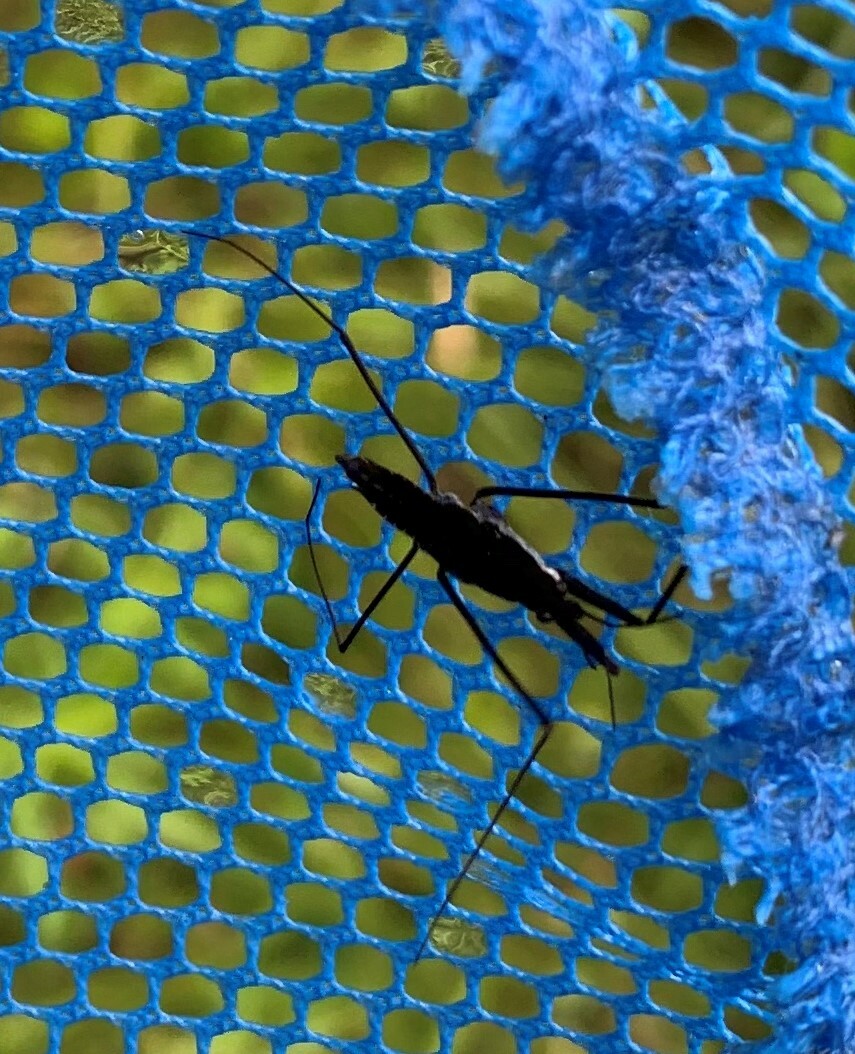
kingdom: Animalia
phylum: Arthropoda
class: Insecta
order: Hemiptera
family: Gerridae
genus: Aquarius
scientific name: Aquarius remigis
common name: Common water strider
